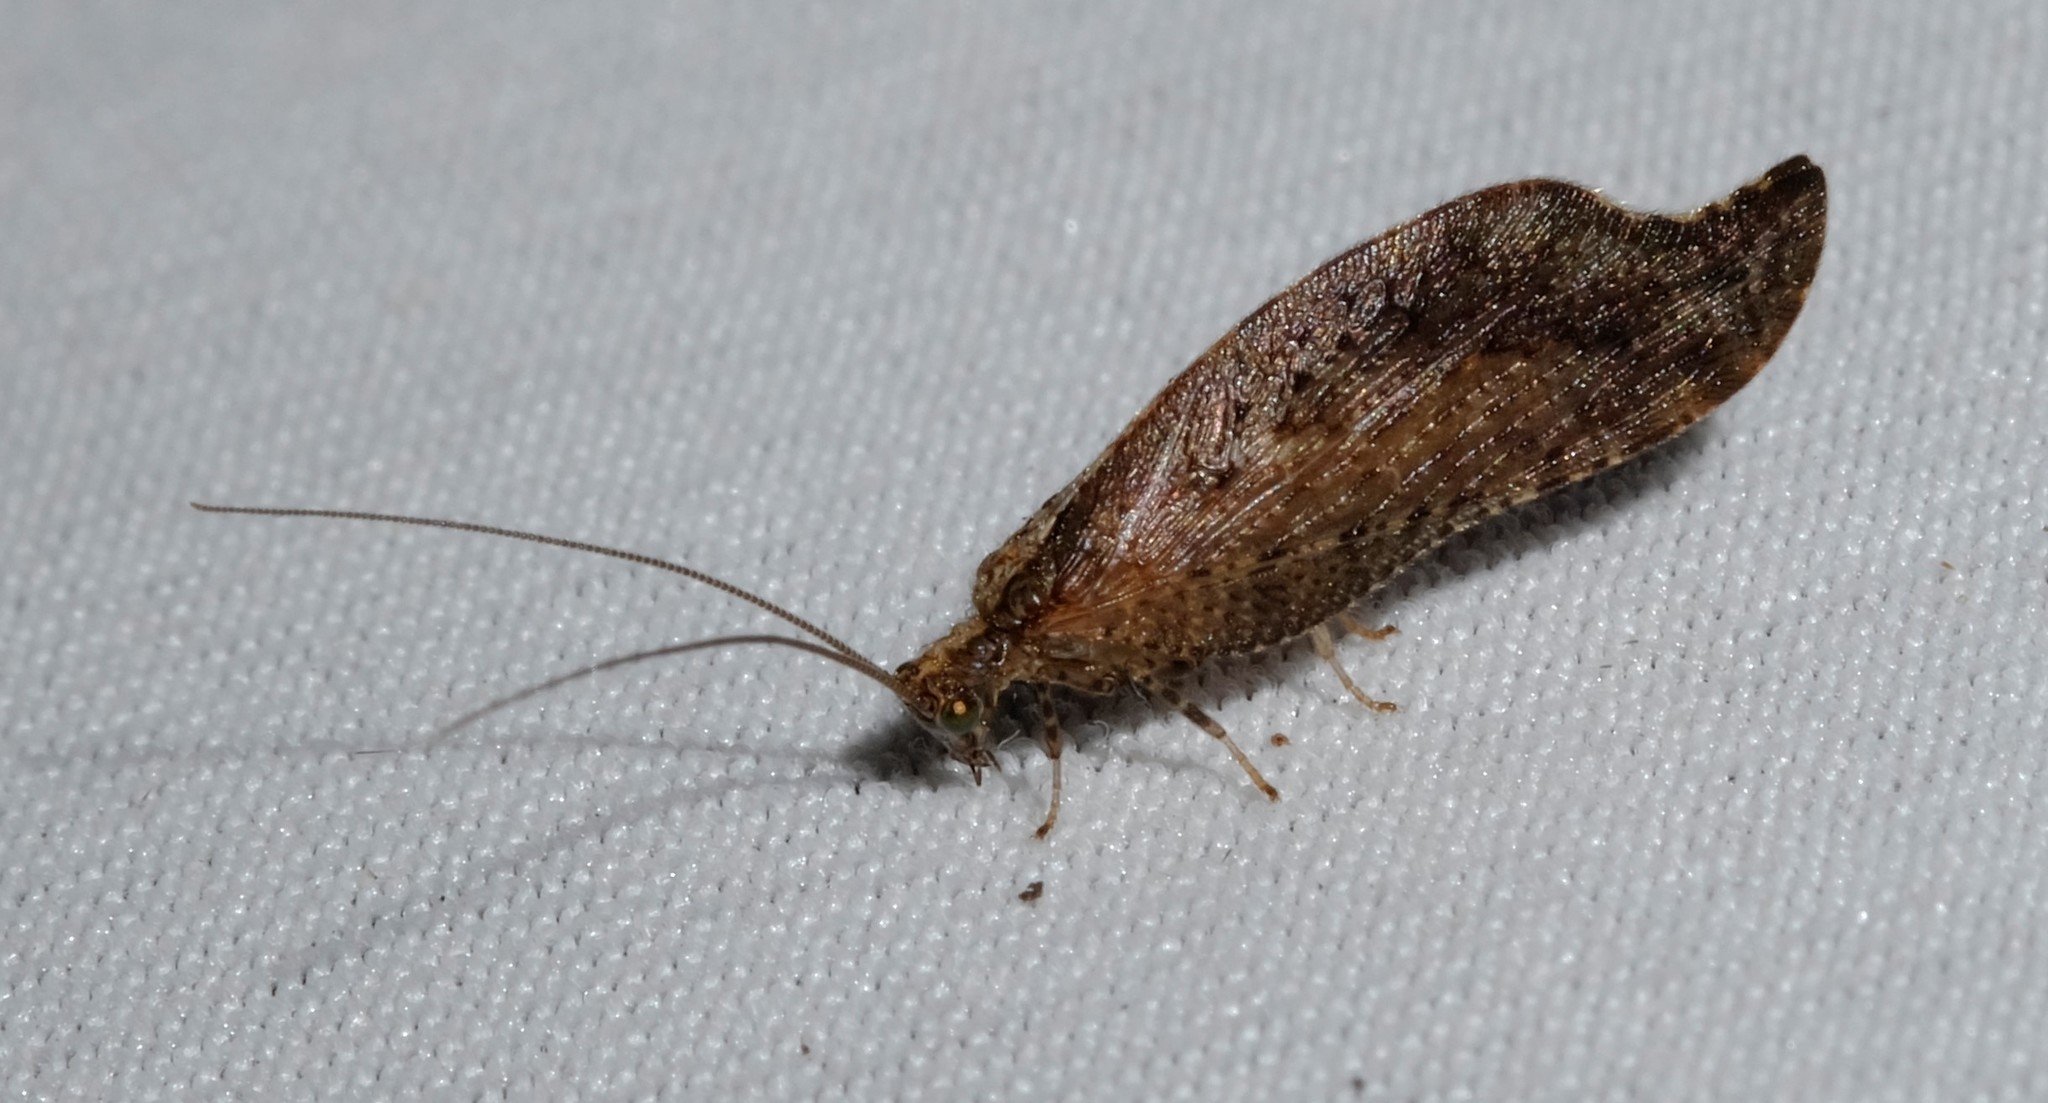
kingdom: Animalia
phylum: Arthropoda
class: Insecta
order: Neuroptera
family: Hemerobiidae
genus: Megalomina
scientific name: Megalomina berothoides
